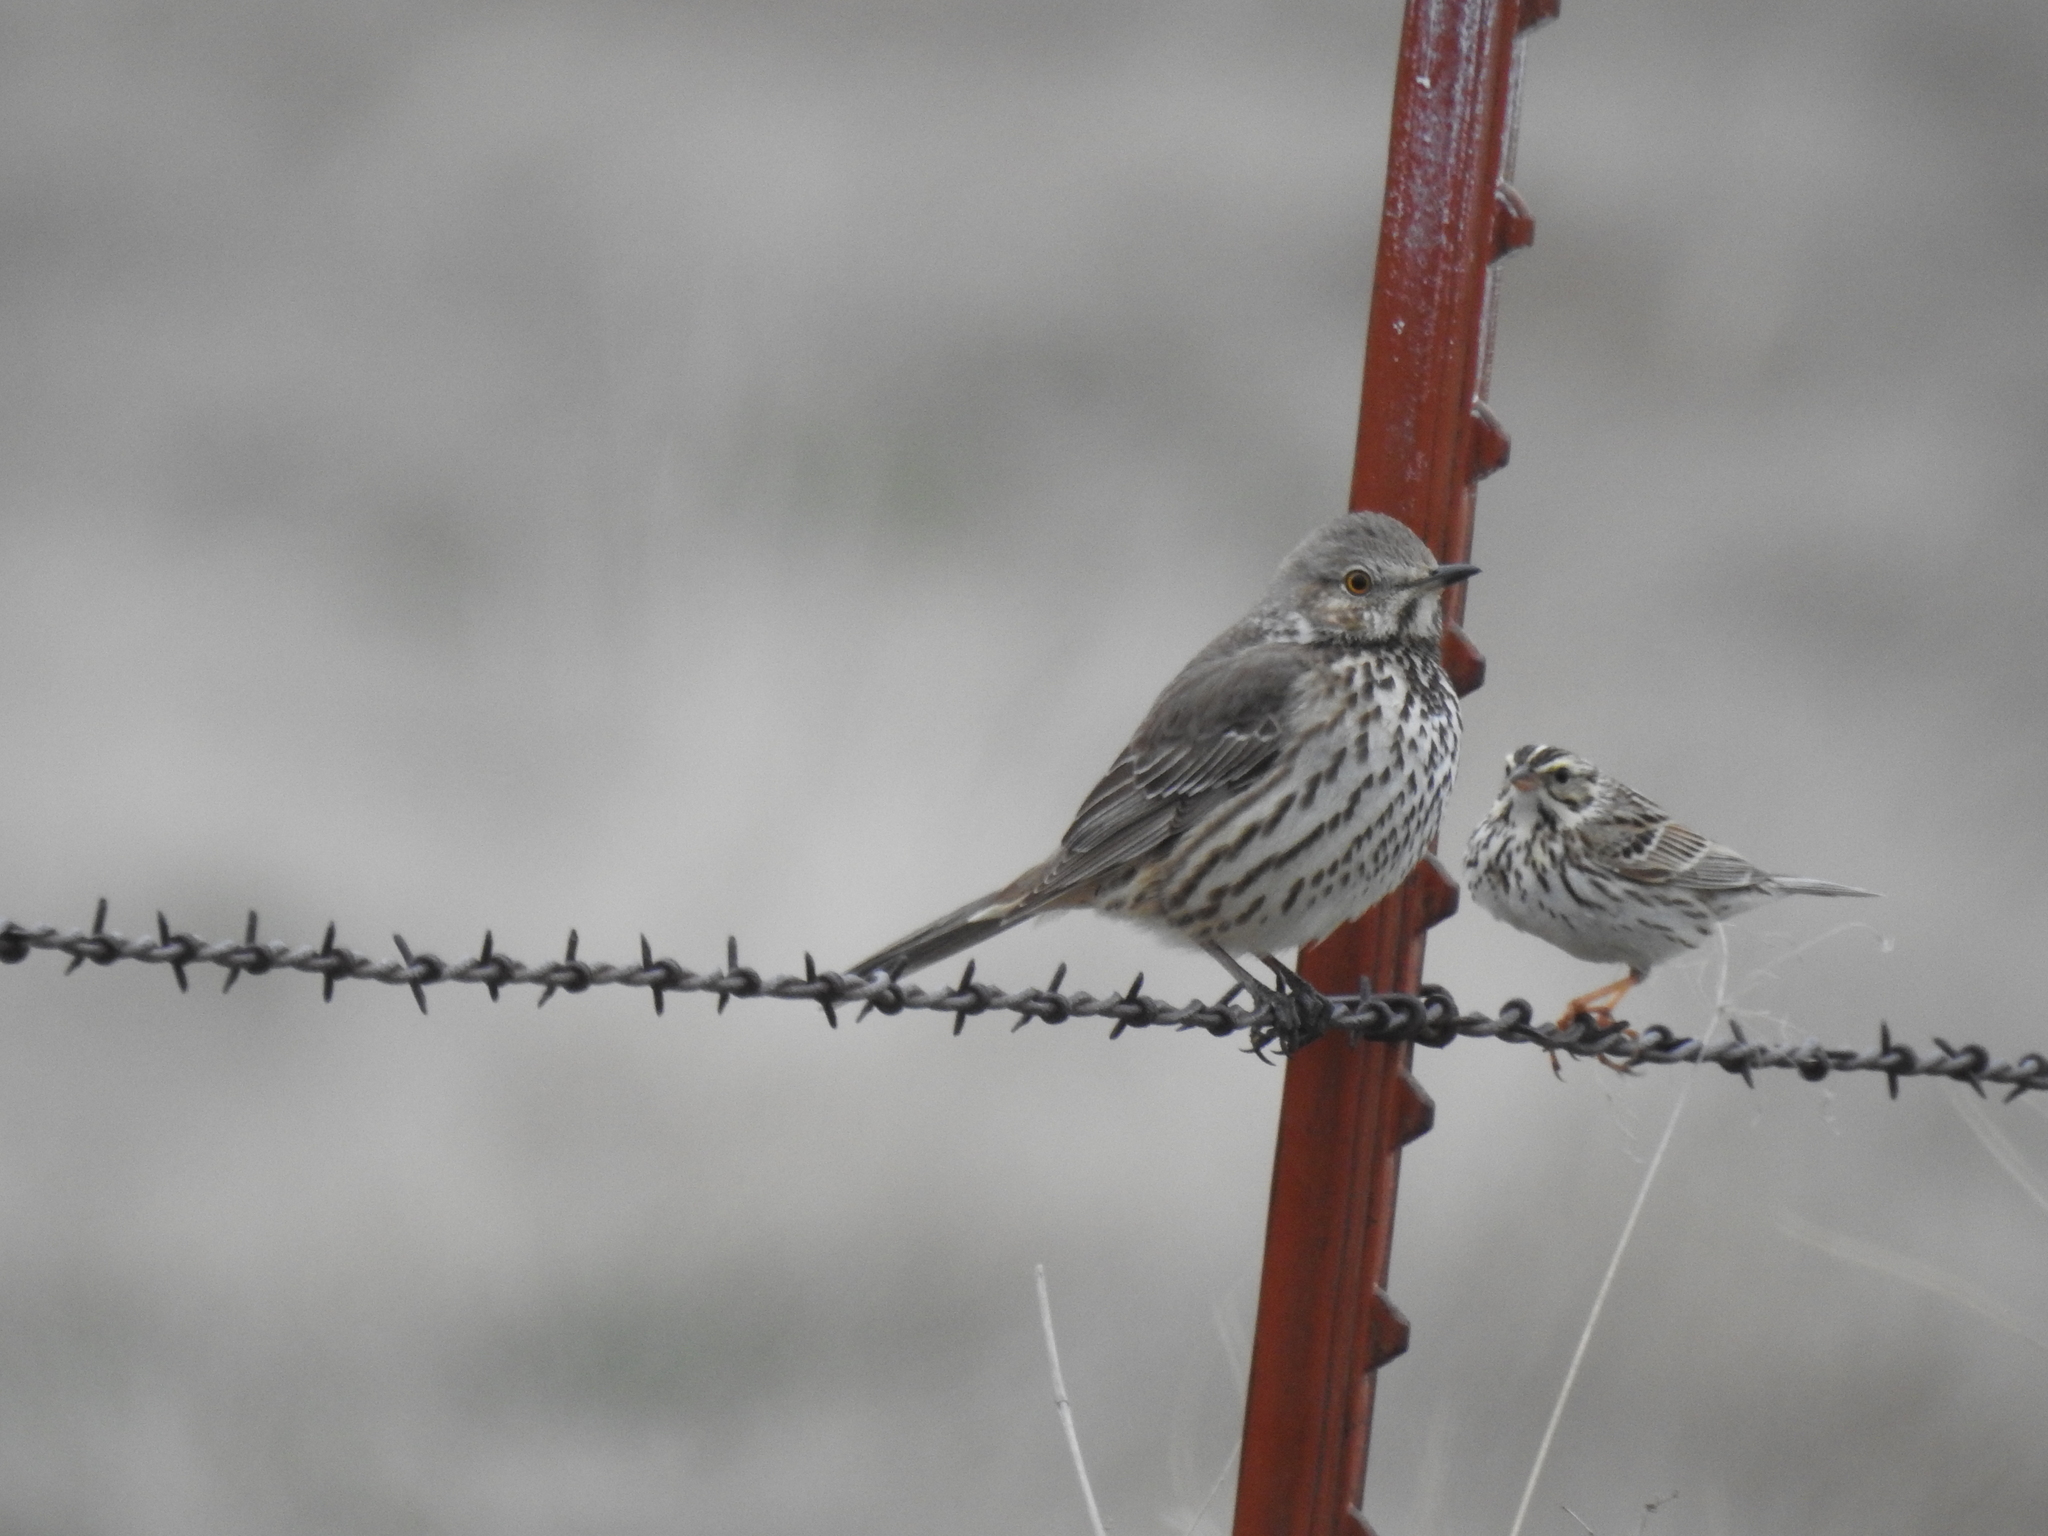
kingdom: Animalia
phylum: Chordata
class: Aves
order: Passeriformes
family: Passerellidae
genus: Passerculus
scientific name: Passerculus sandwichensis
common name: Savannah sparrow
